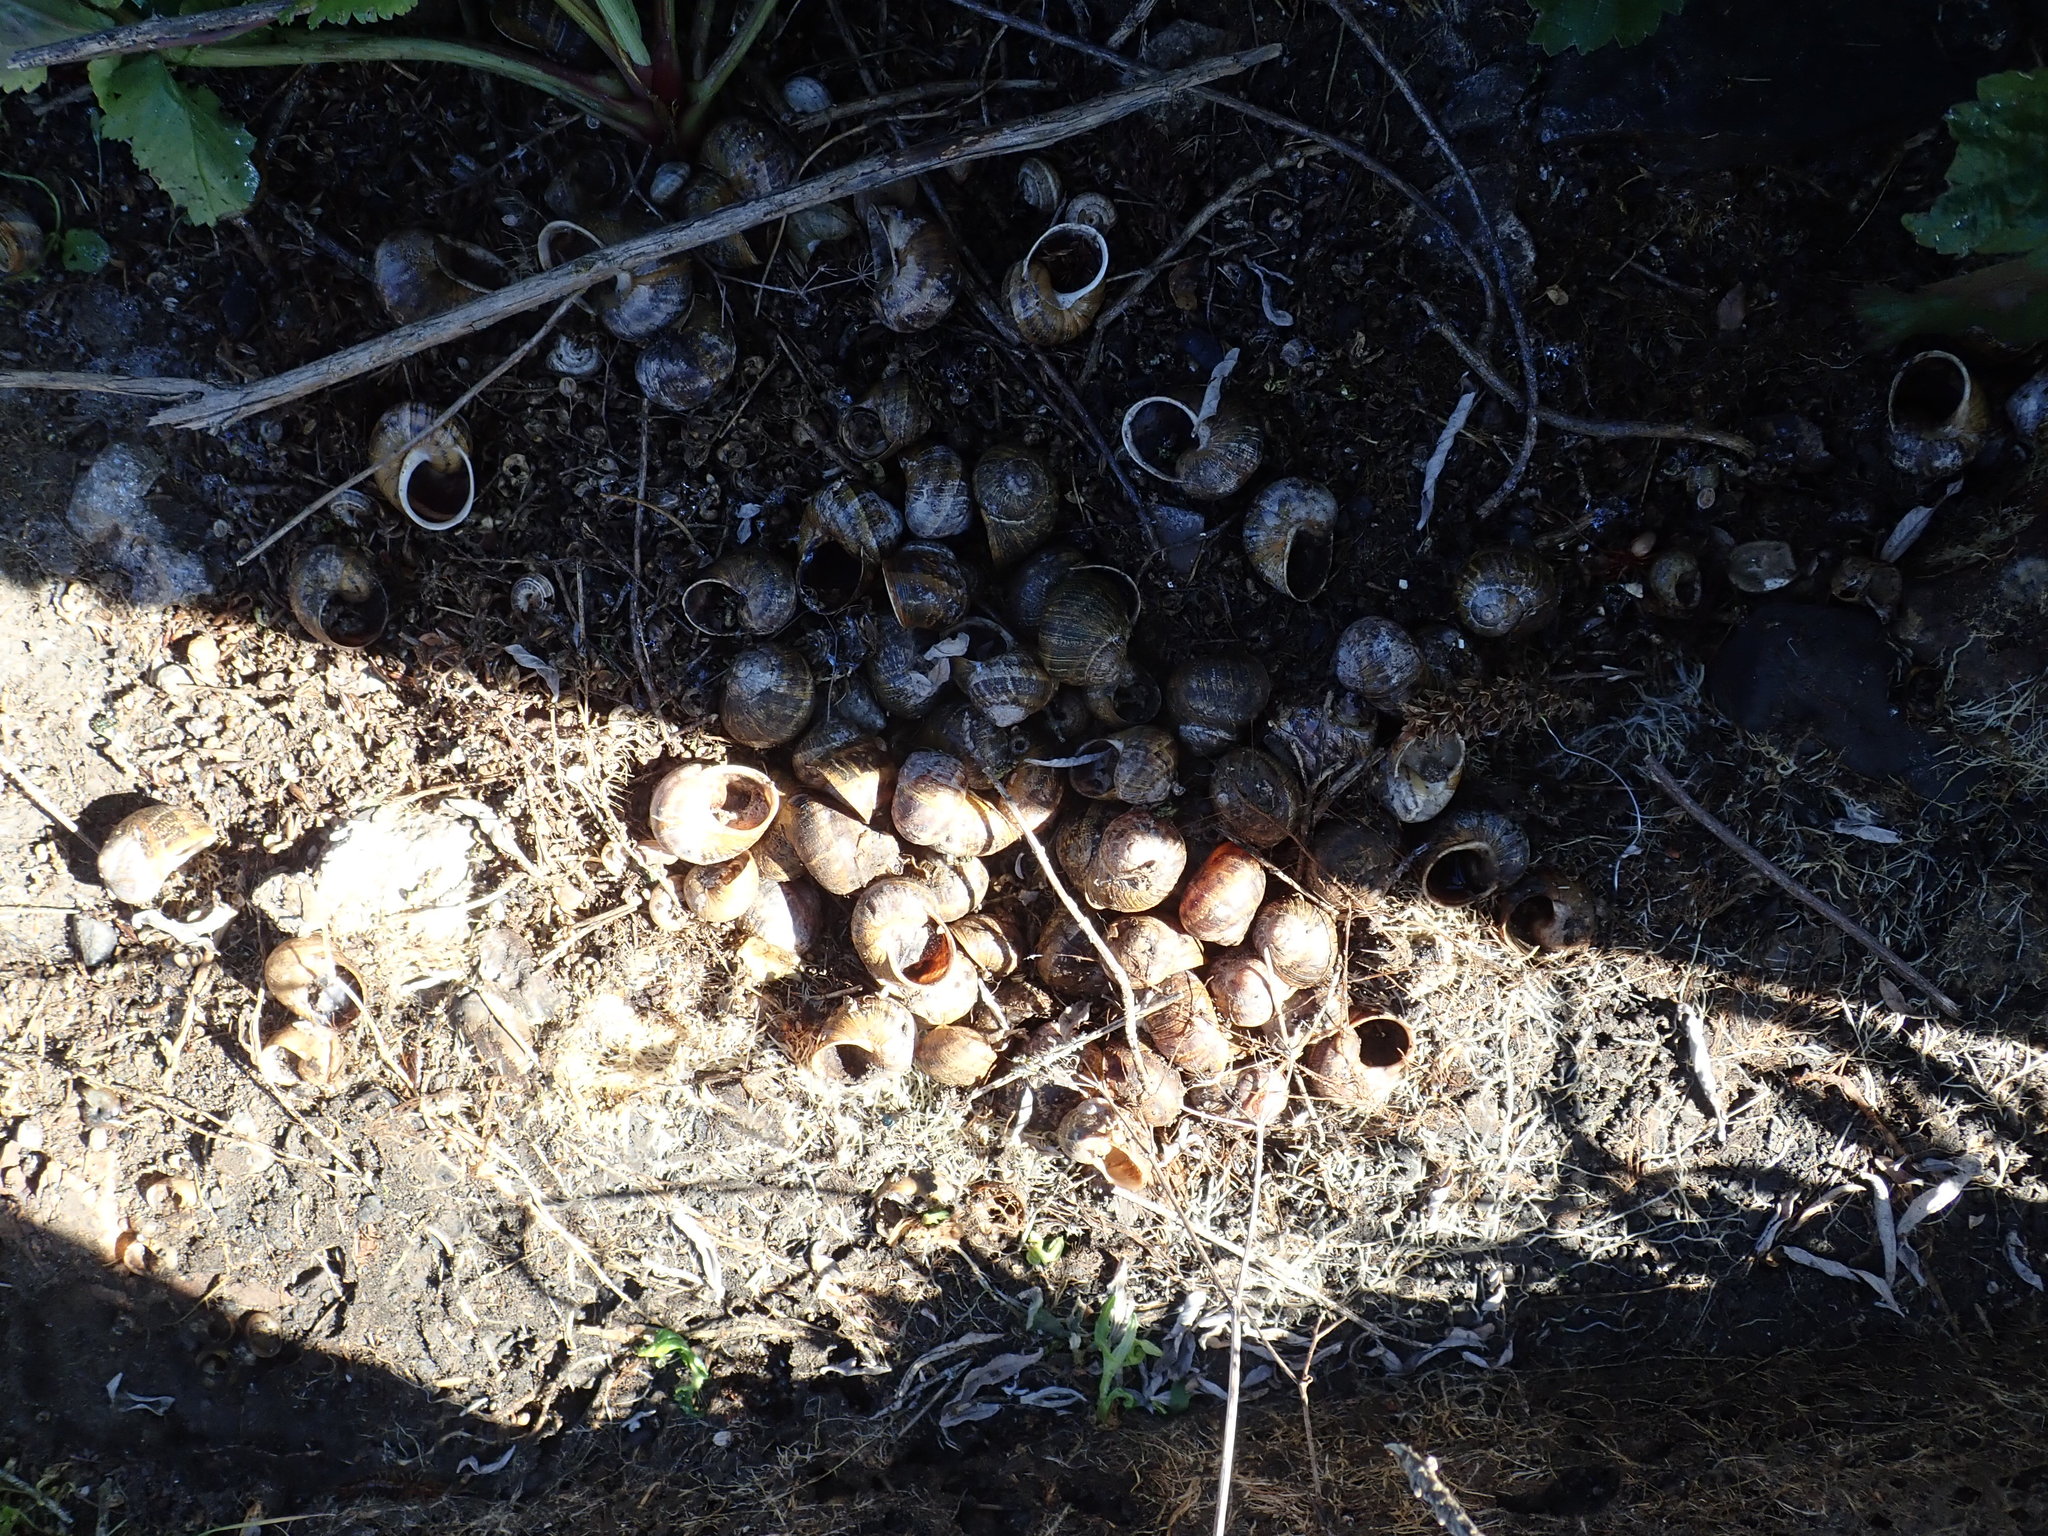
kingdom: Animalia
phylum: Mollusca
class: Gastropoda
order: Stylommatophora
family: Helicidae
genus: Cornu
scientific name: Cornu aspersum
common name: Brown garden snail
